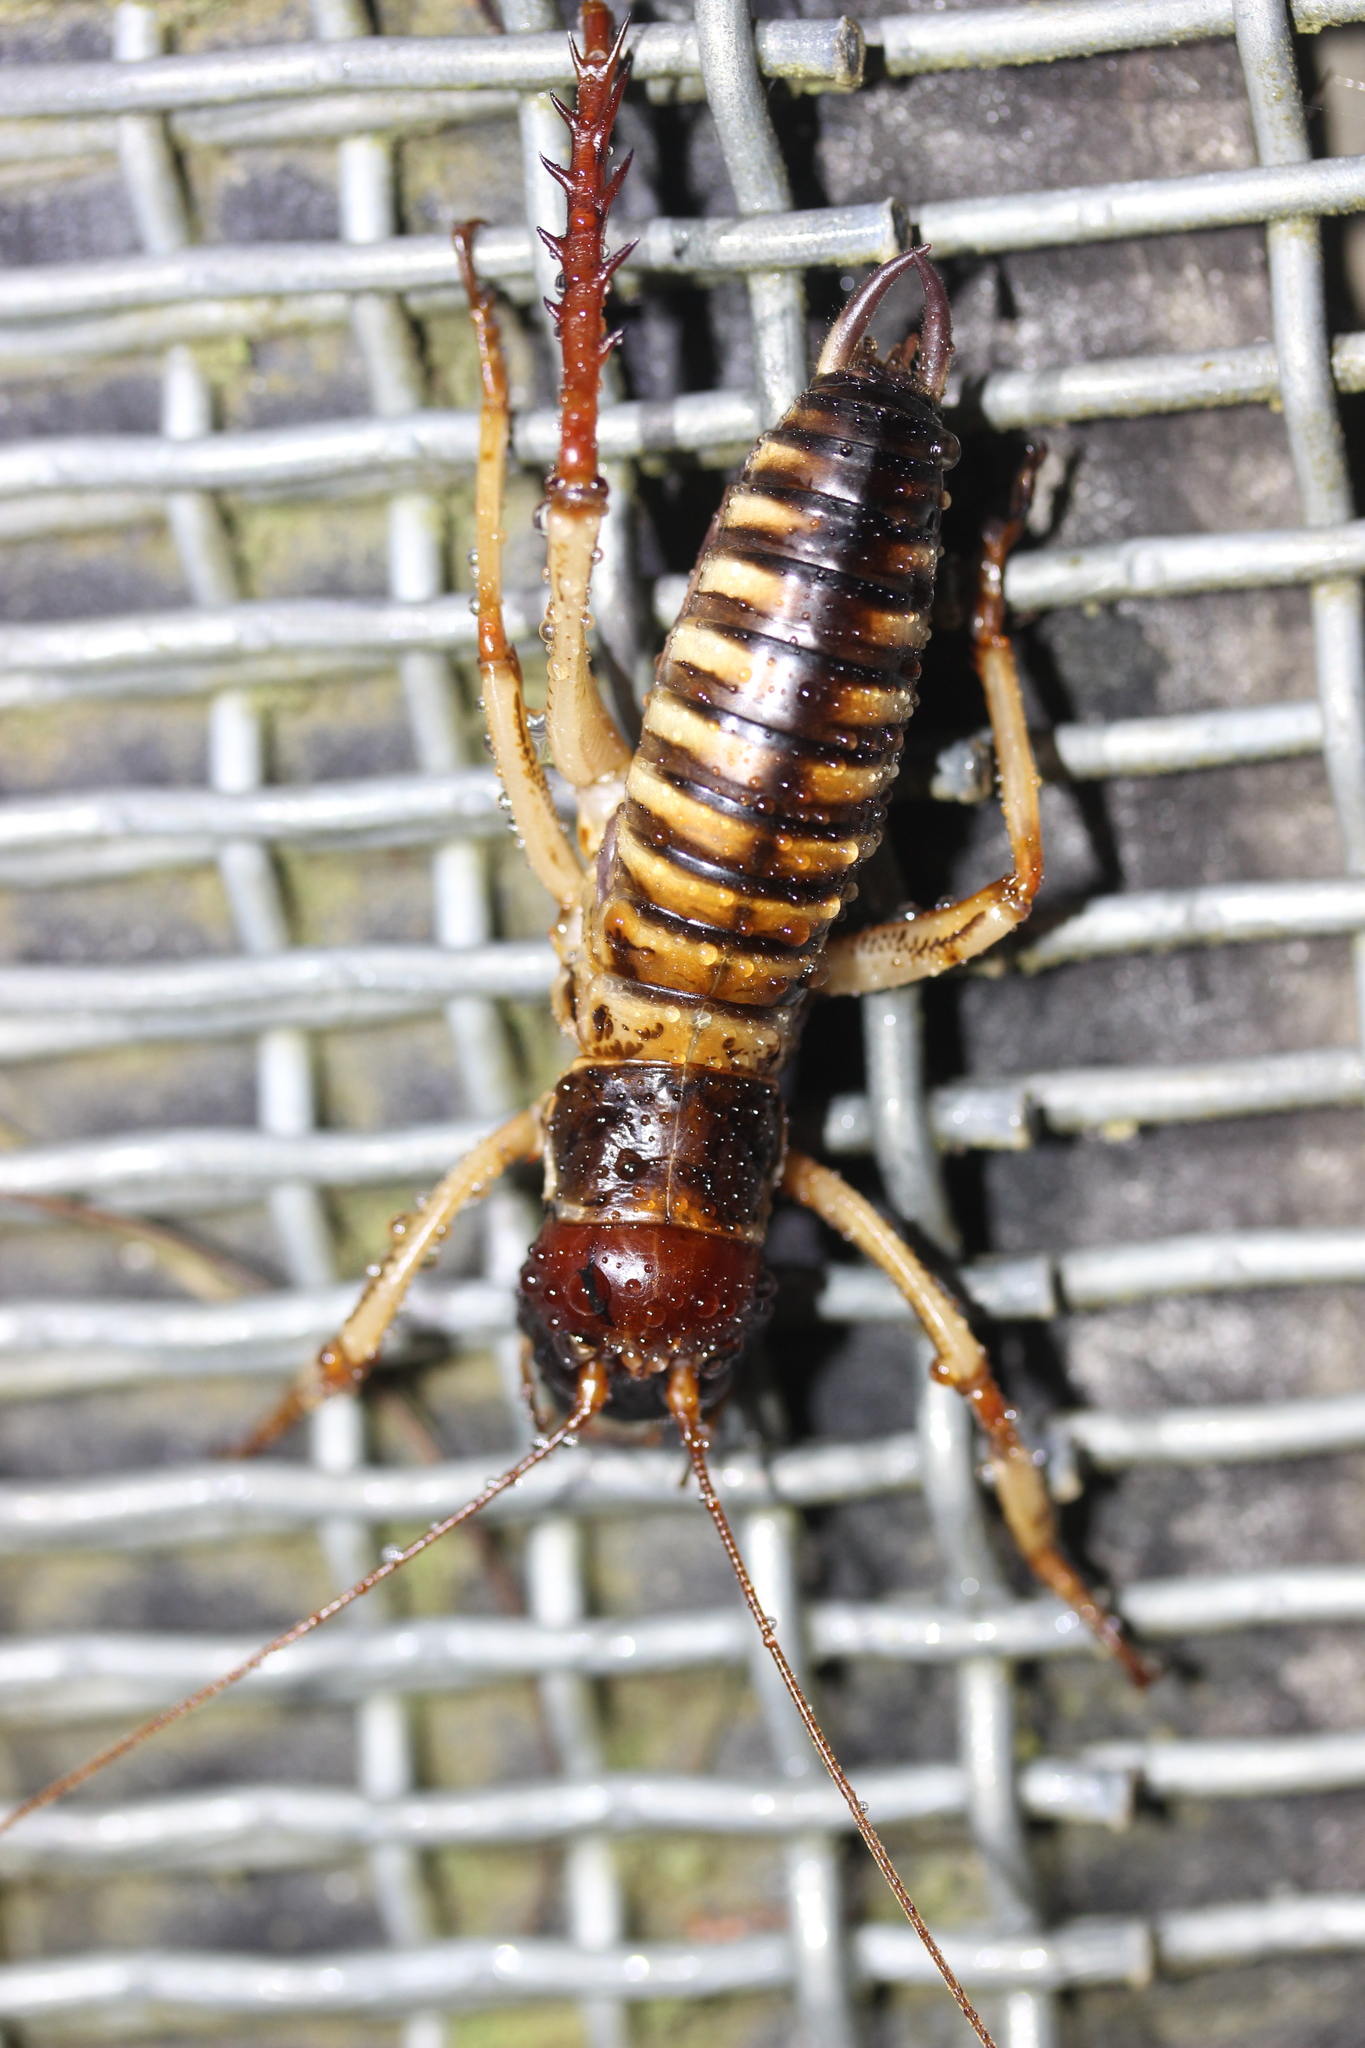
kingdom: Animalia
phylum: Arthropoda
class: Insecta
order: Orthoptera
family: Anostostomatidae
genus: Hemideina
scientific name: Hemideina crassidens
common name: Wellington tree weta
